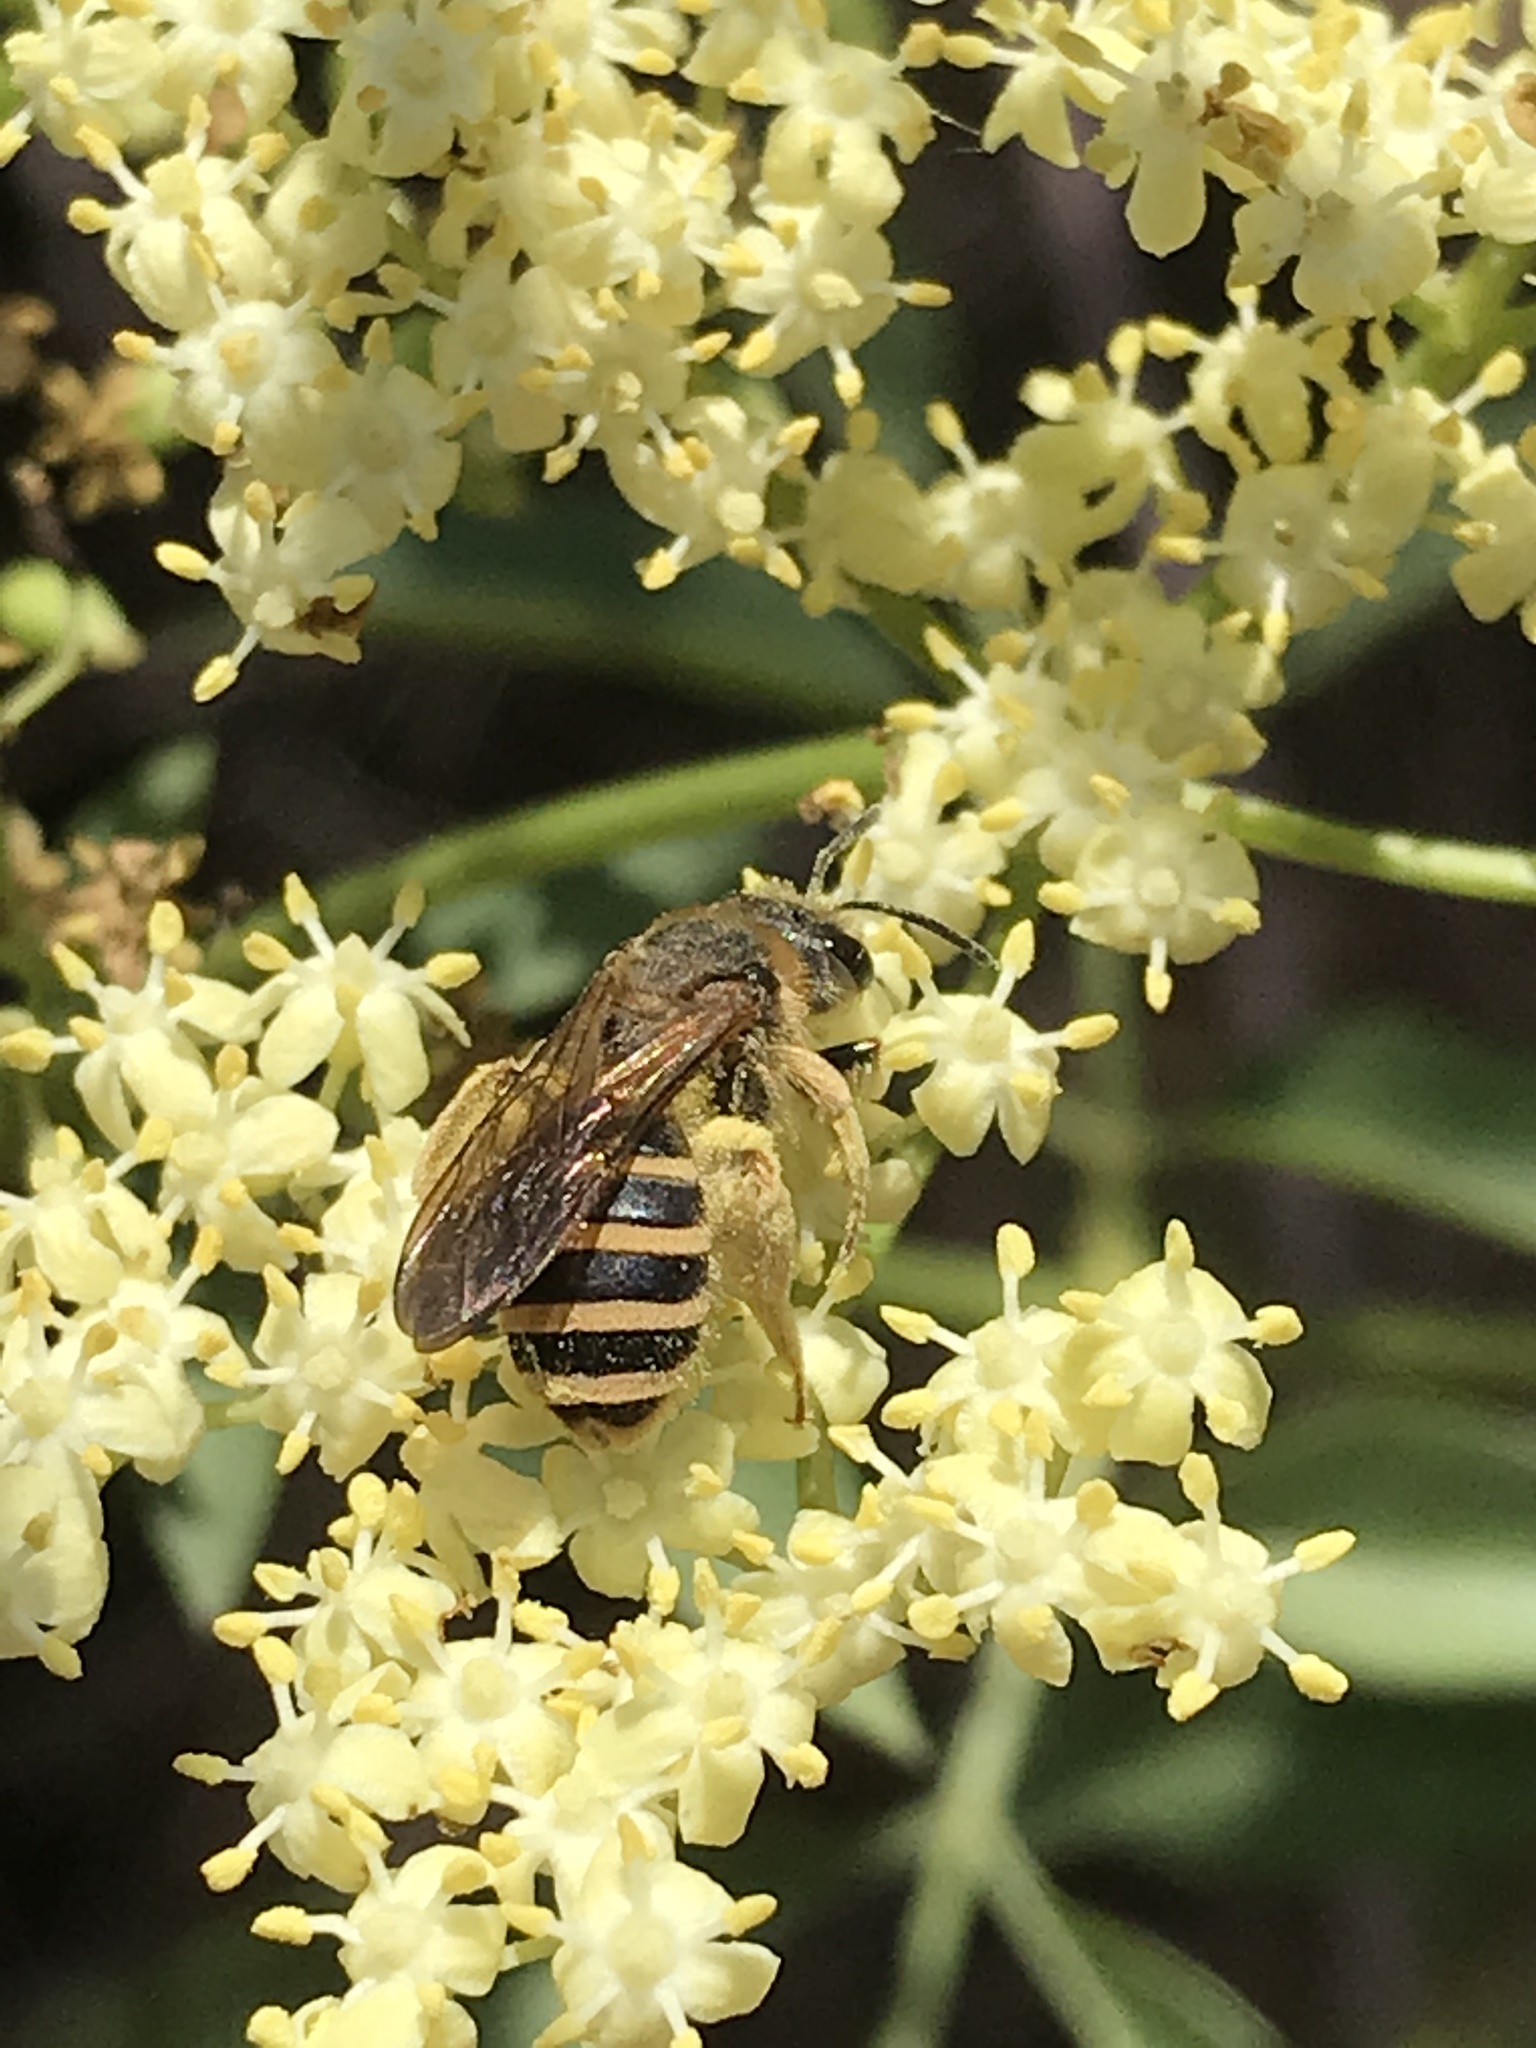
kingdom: Animalia
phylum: Arthropoda
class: Insecta
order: Hymenoptera
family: Halictidae
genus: Halictus
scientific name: Halictus farinosus
